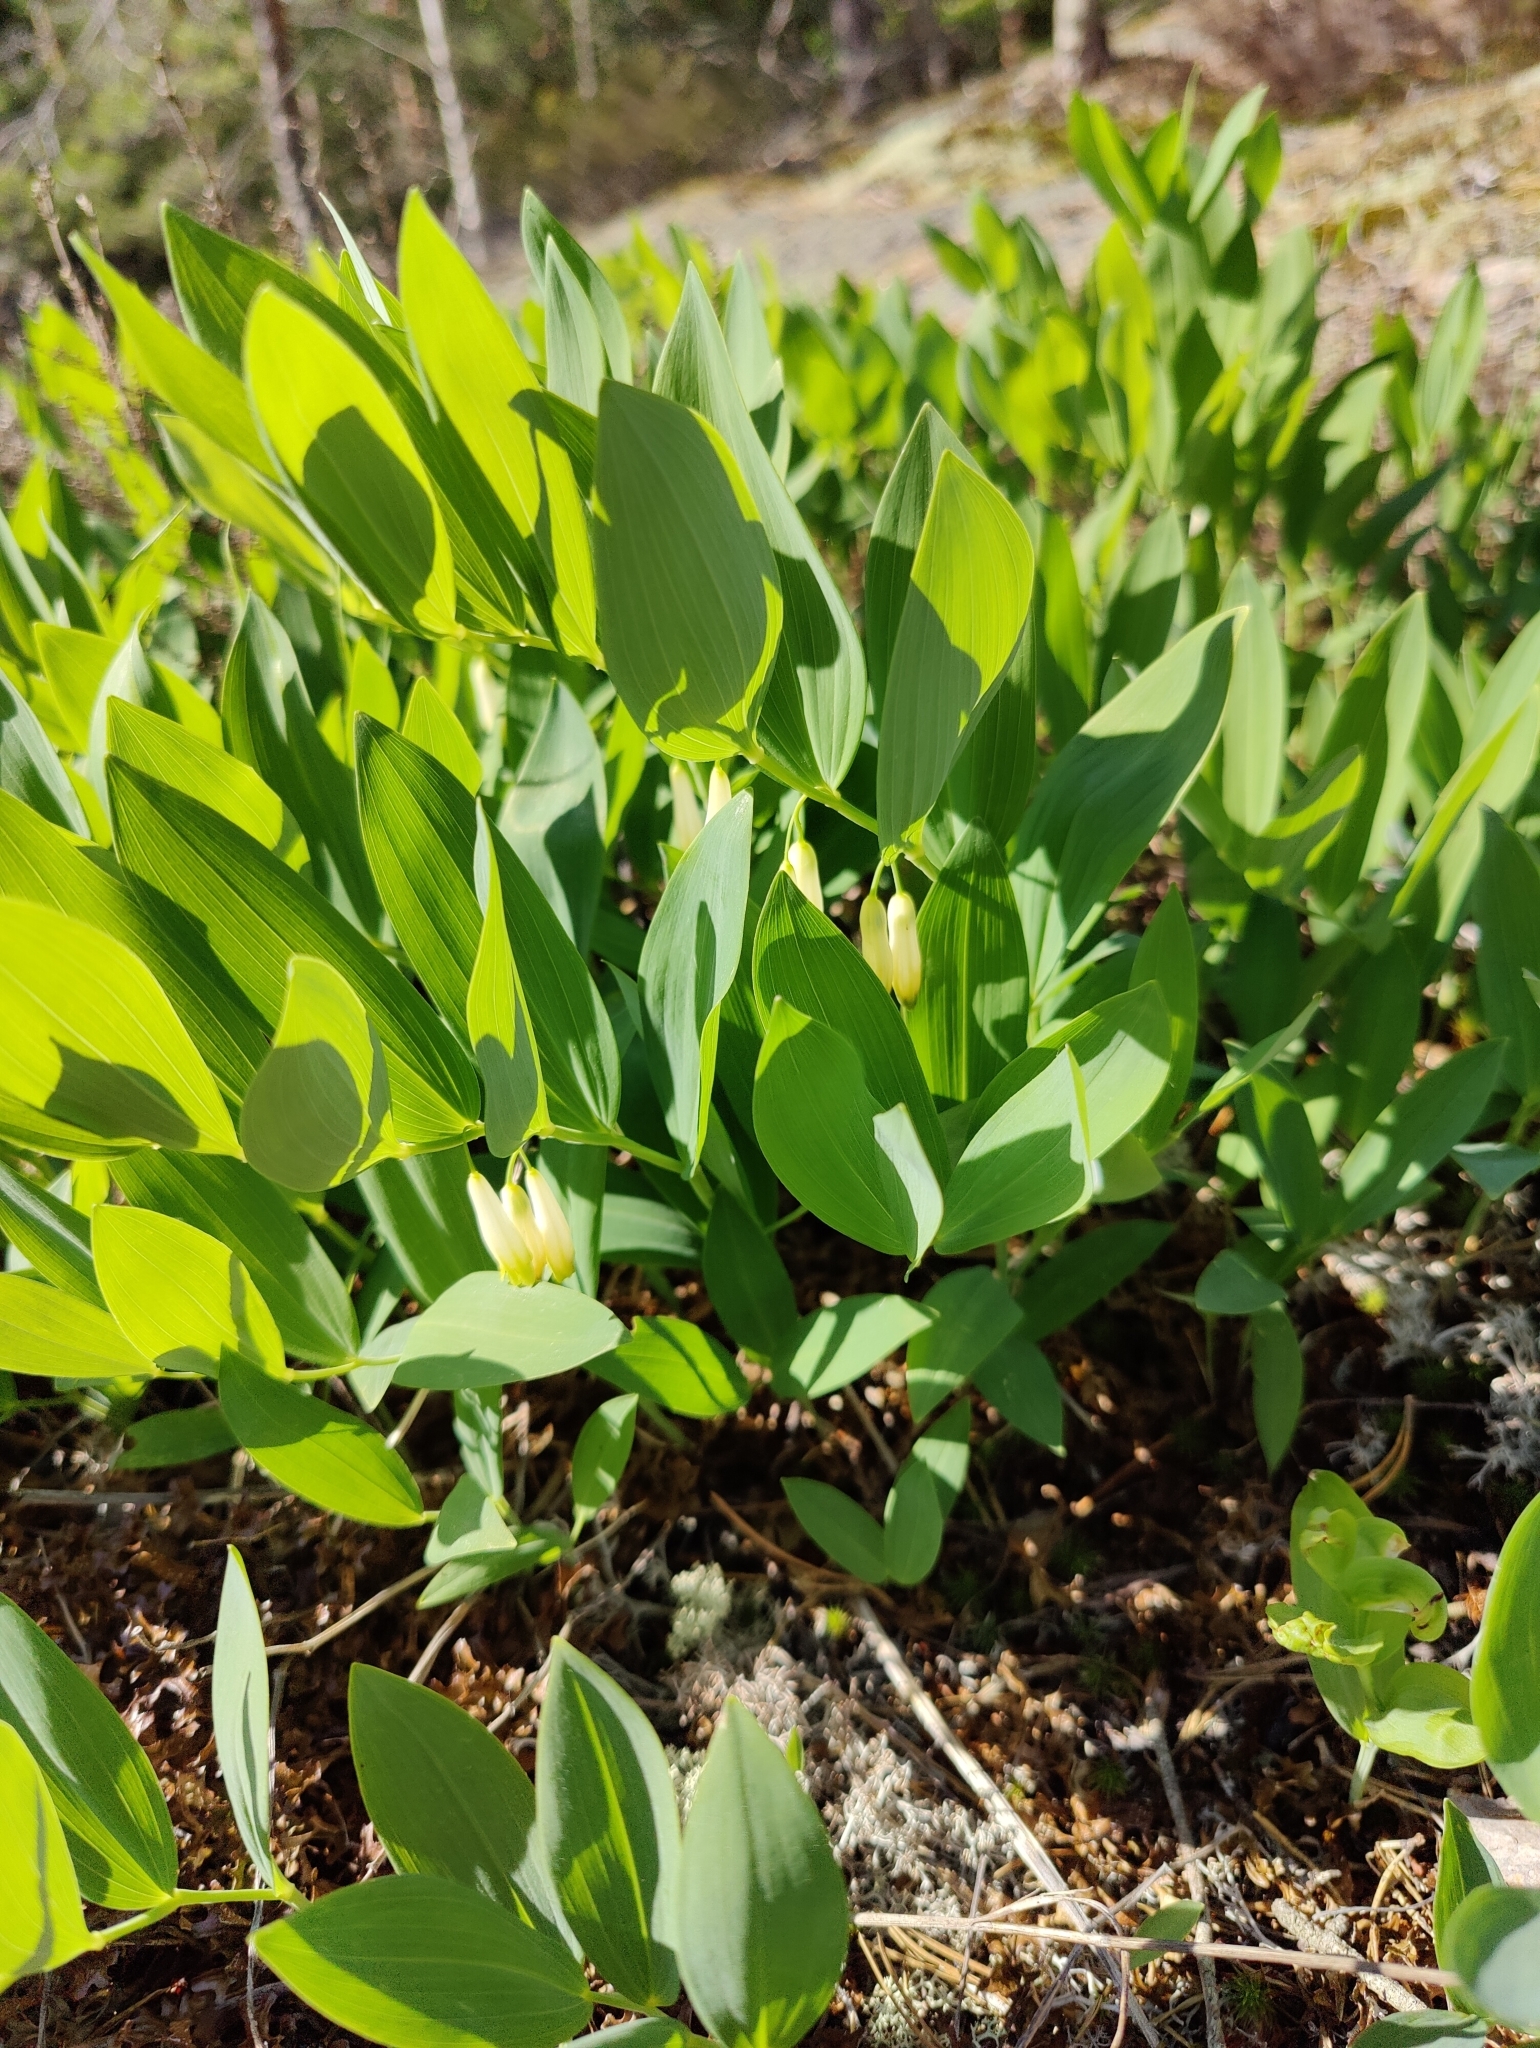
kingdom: Plantae
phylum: Tracheophyta
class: Liliopsida
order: Asparagales
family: Asparagaceae
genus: Polygonatum
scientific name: Polygonatum odoratum
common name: Angular solomon's-seal
